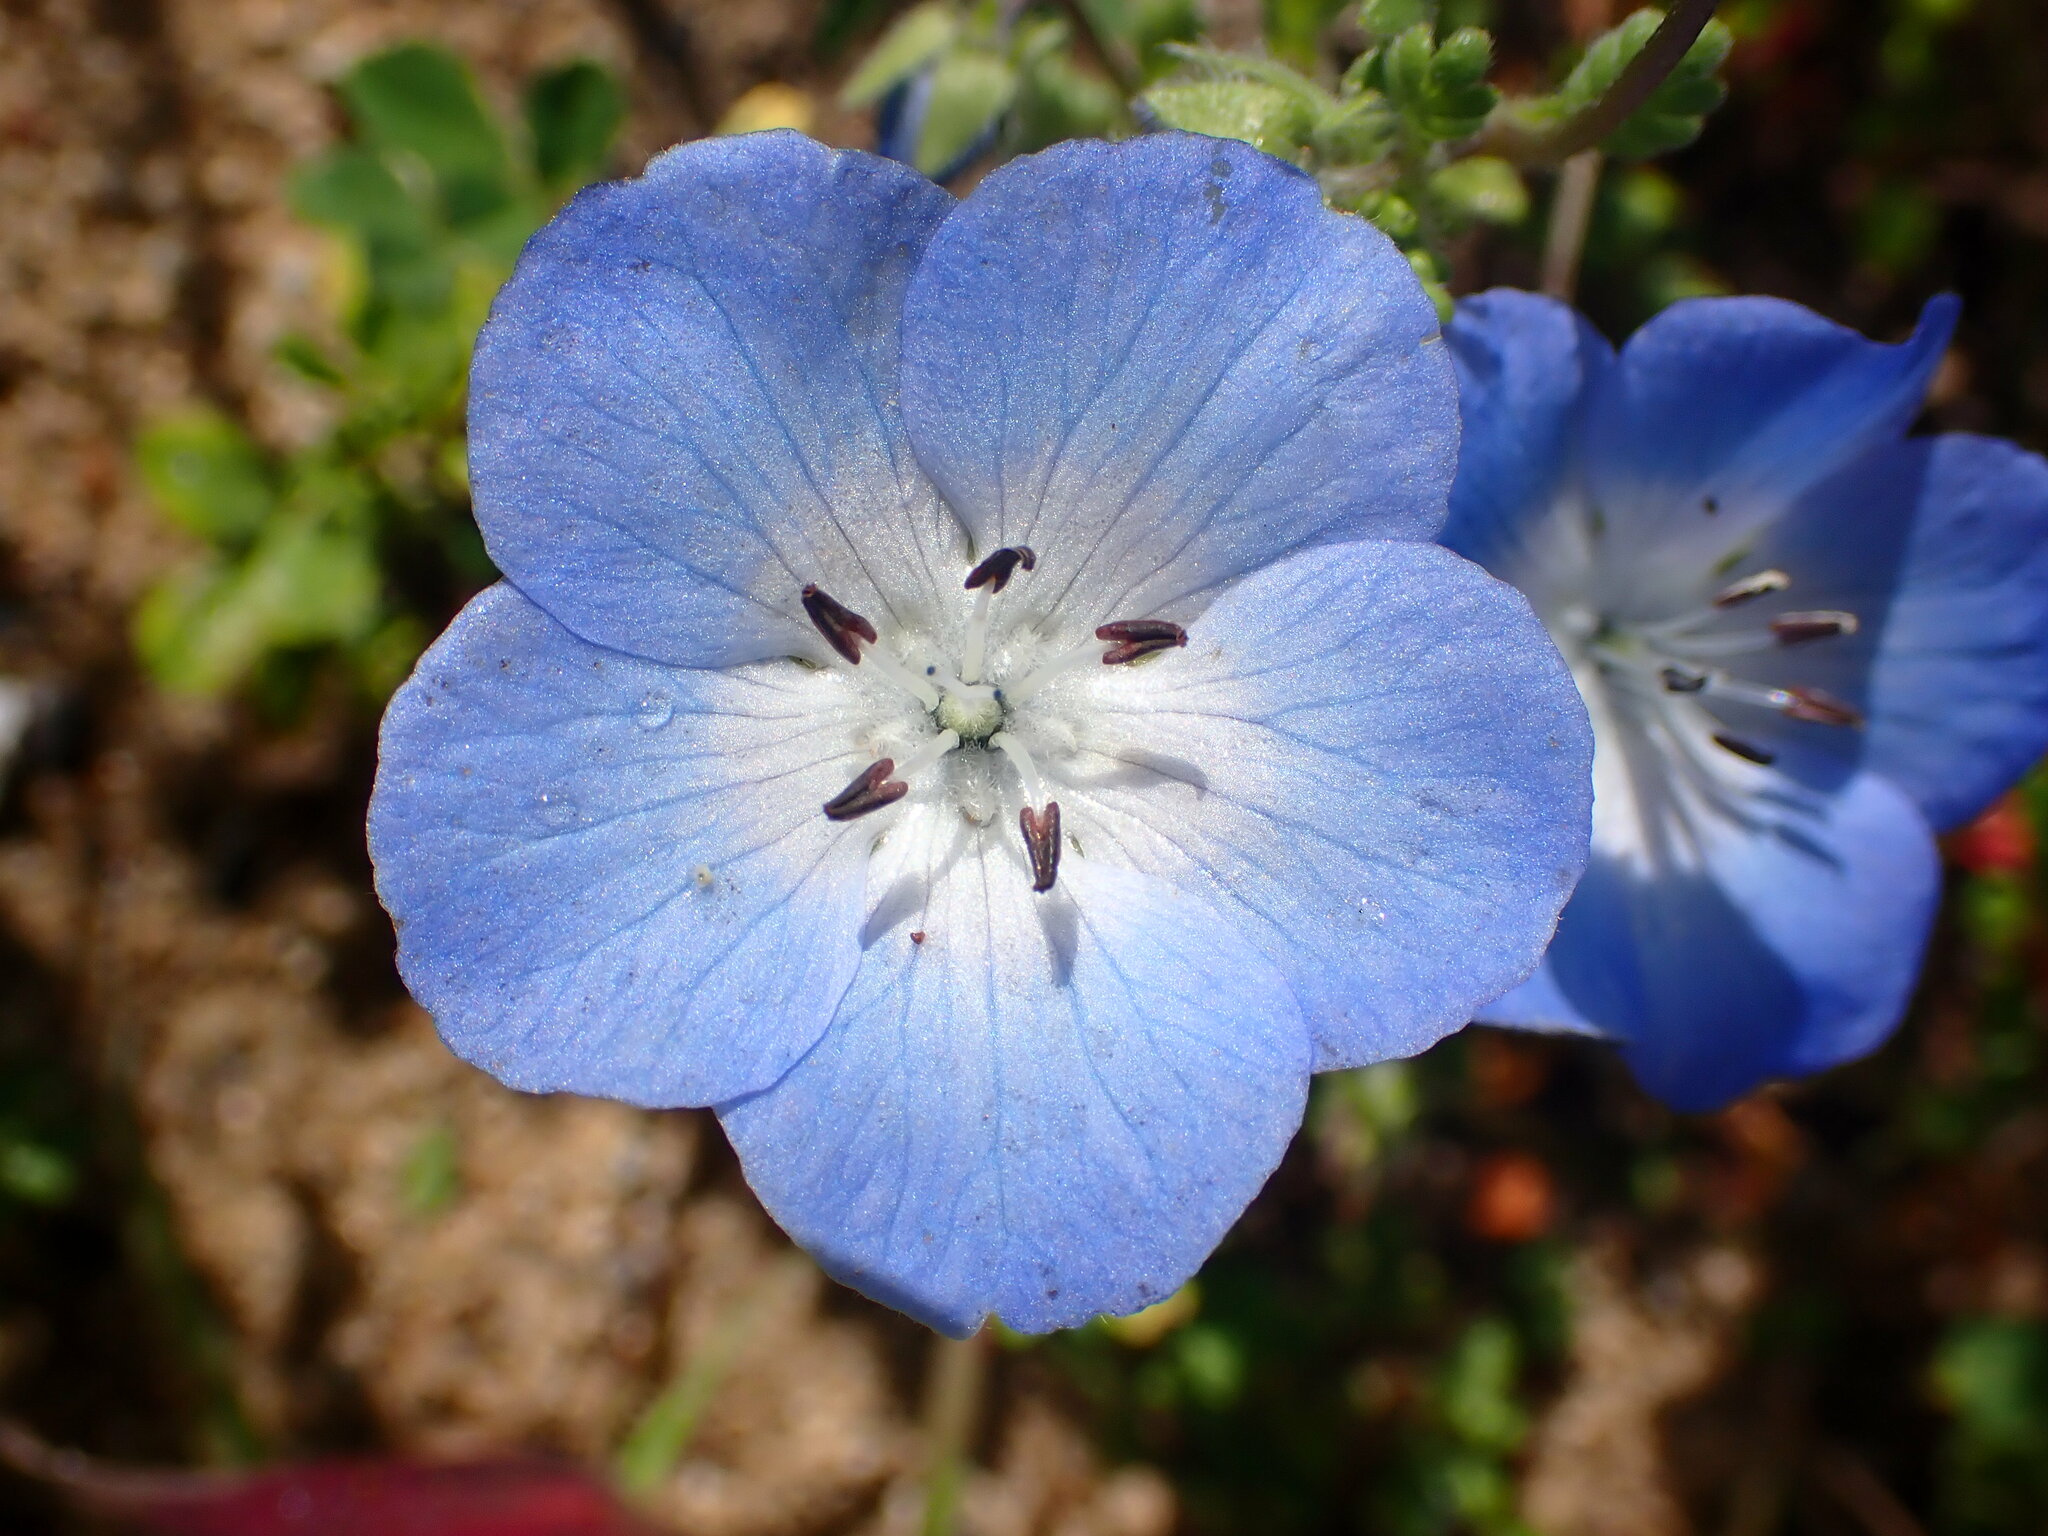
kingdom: Plantae
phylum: Tracheophyta
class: Magnoliopsida
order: Boraginales
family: Hydrophyllaceae
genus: Nemophila
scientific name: Nemophila menziesii
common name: Baby's-blue-eyes
